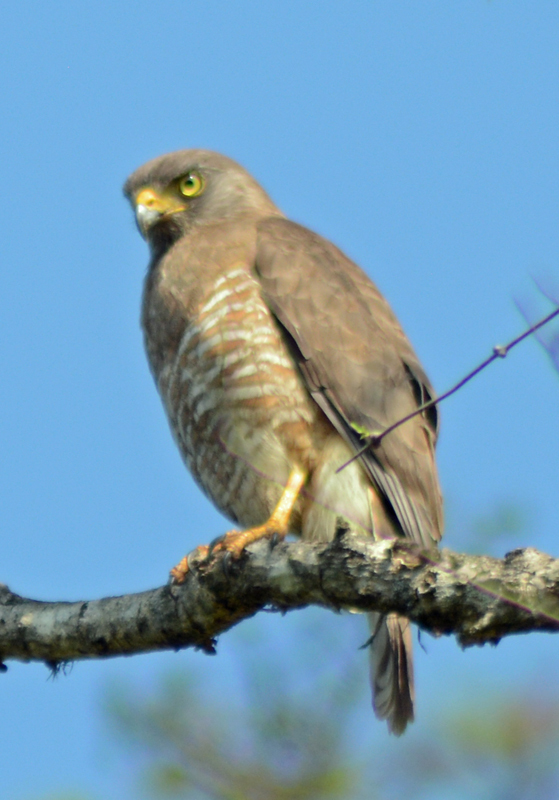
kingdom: Animalia
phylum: Chordata
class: Aves
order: Accipitriformes
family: Accipitridae
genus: Rupornis
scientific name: Rupornis magnirostris
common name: Roadside hawk
